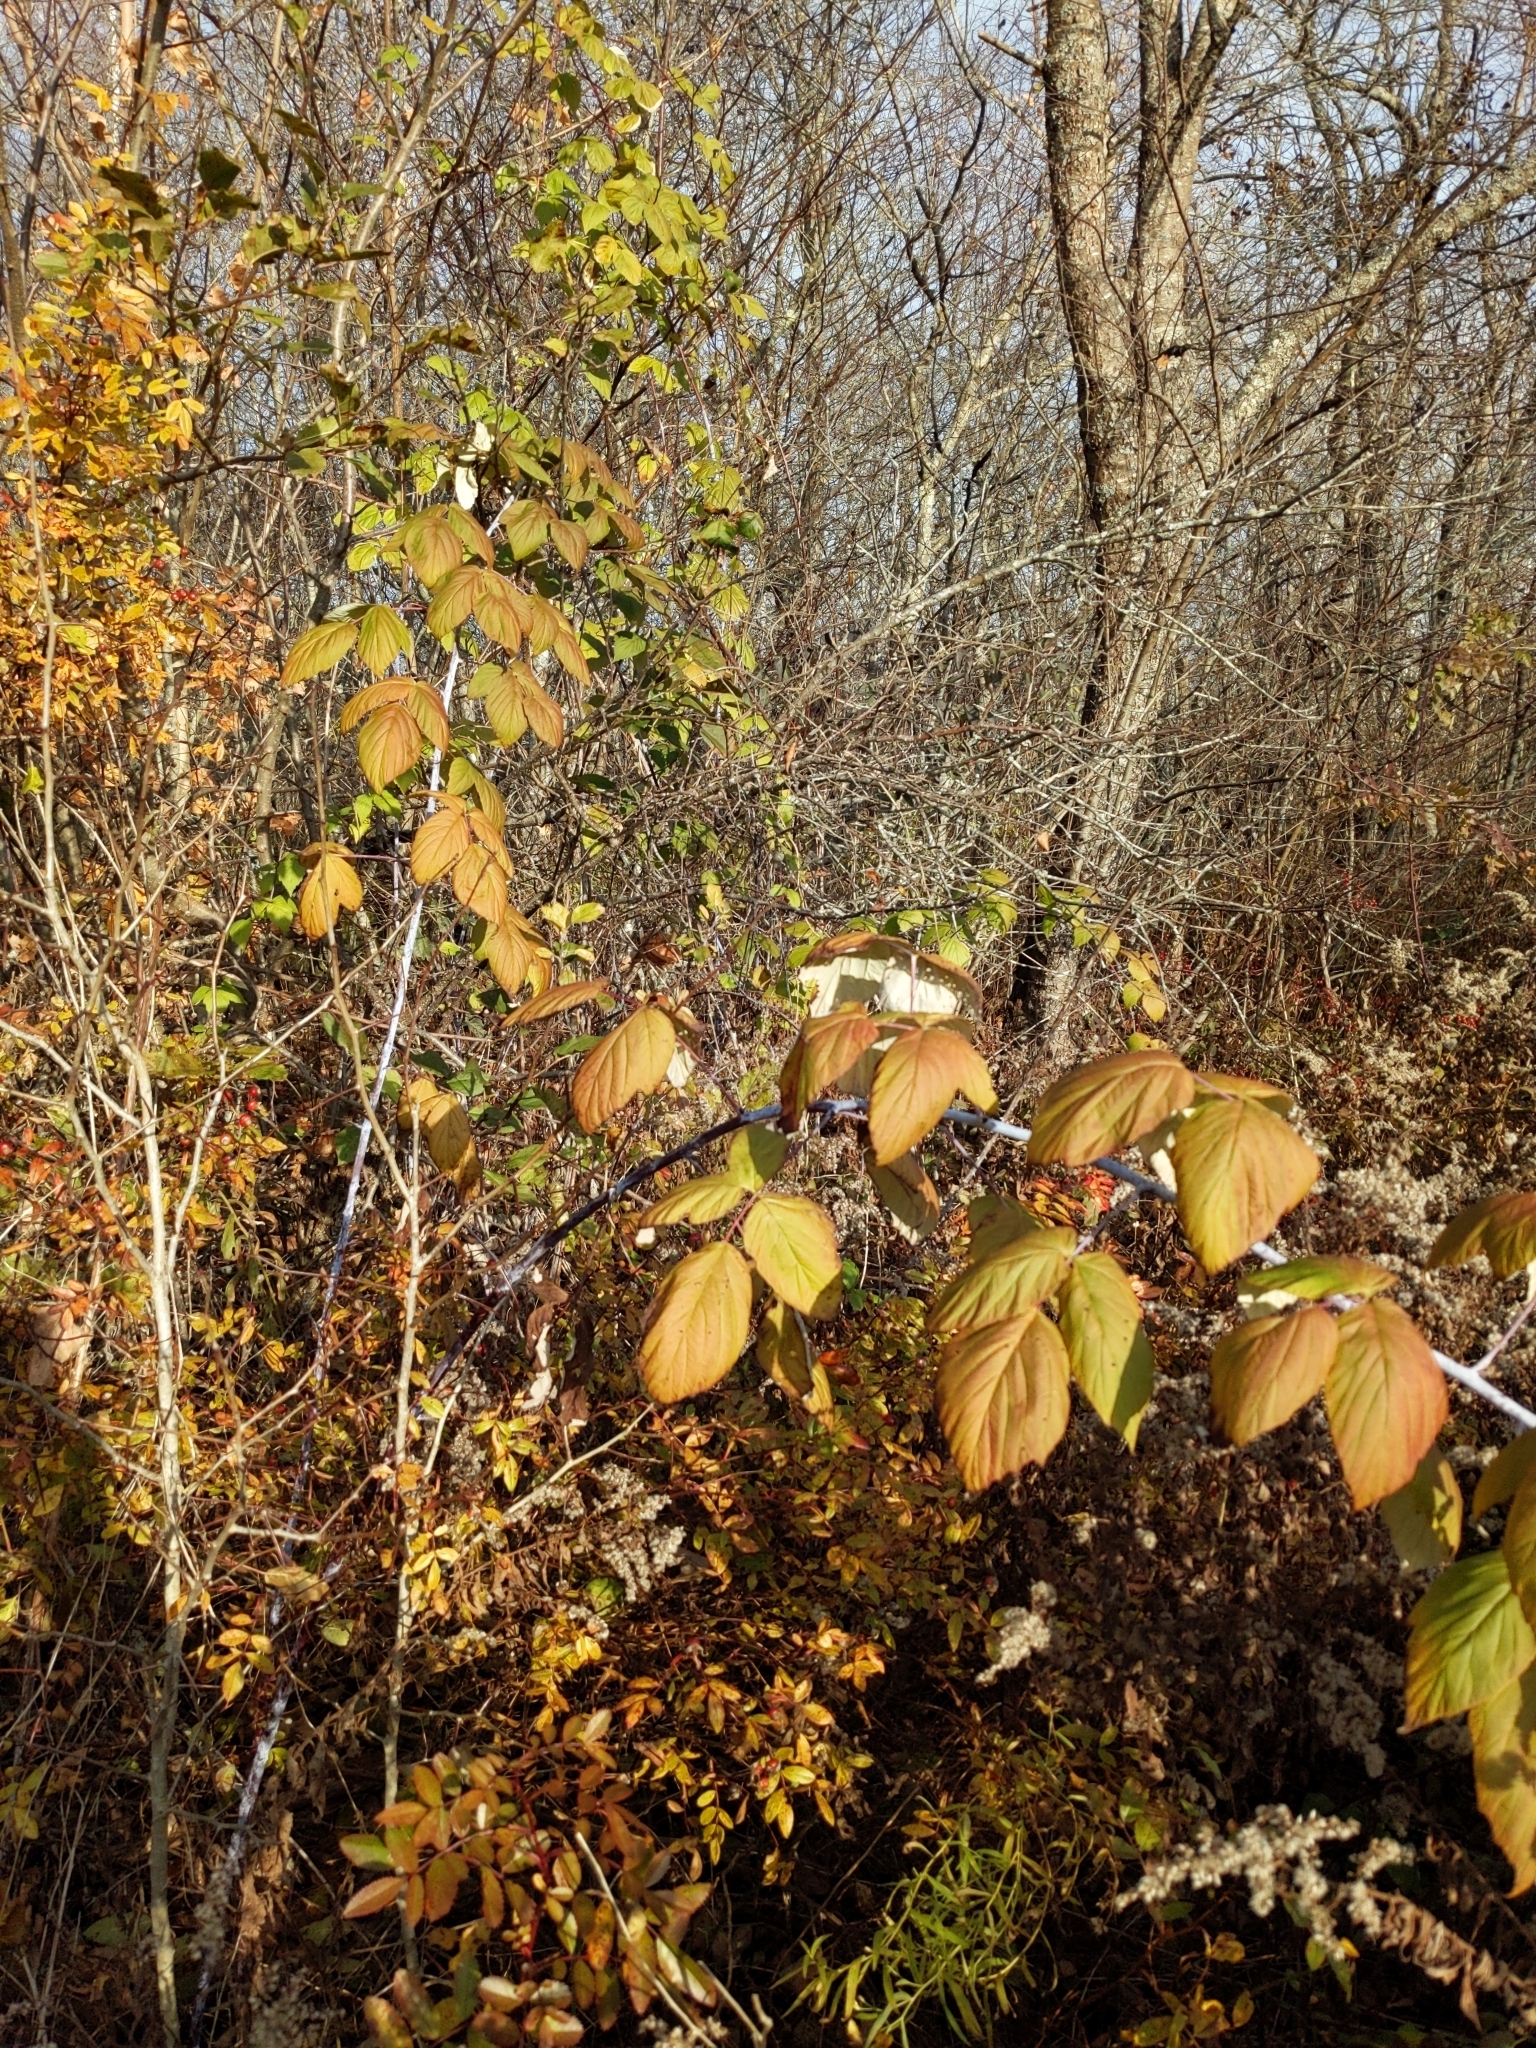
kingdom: Plantae
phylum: Tracheophyta
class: Magnoliopsida
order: Rosales
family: Rosaceae
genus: Rubus
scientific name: Rubus occidentalis
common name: Black raspberry
